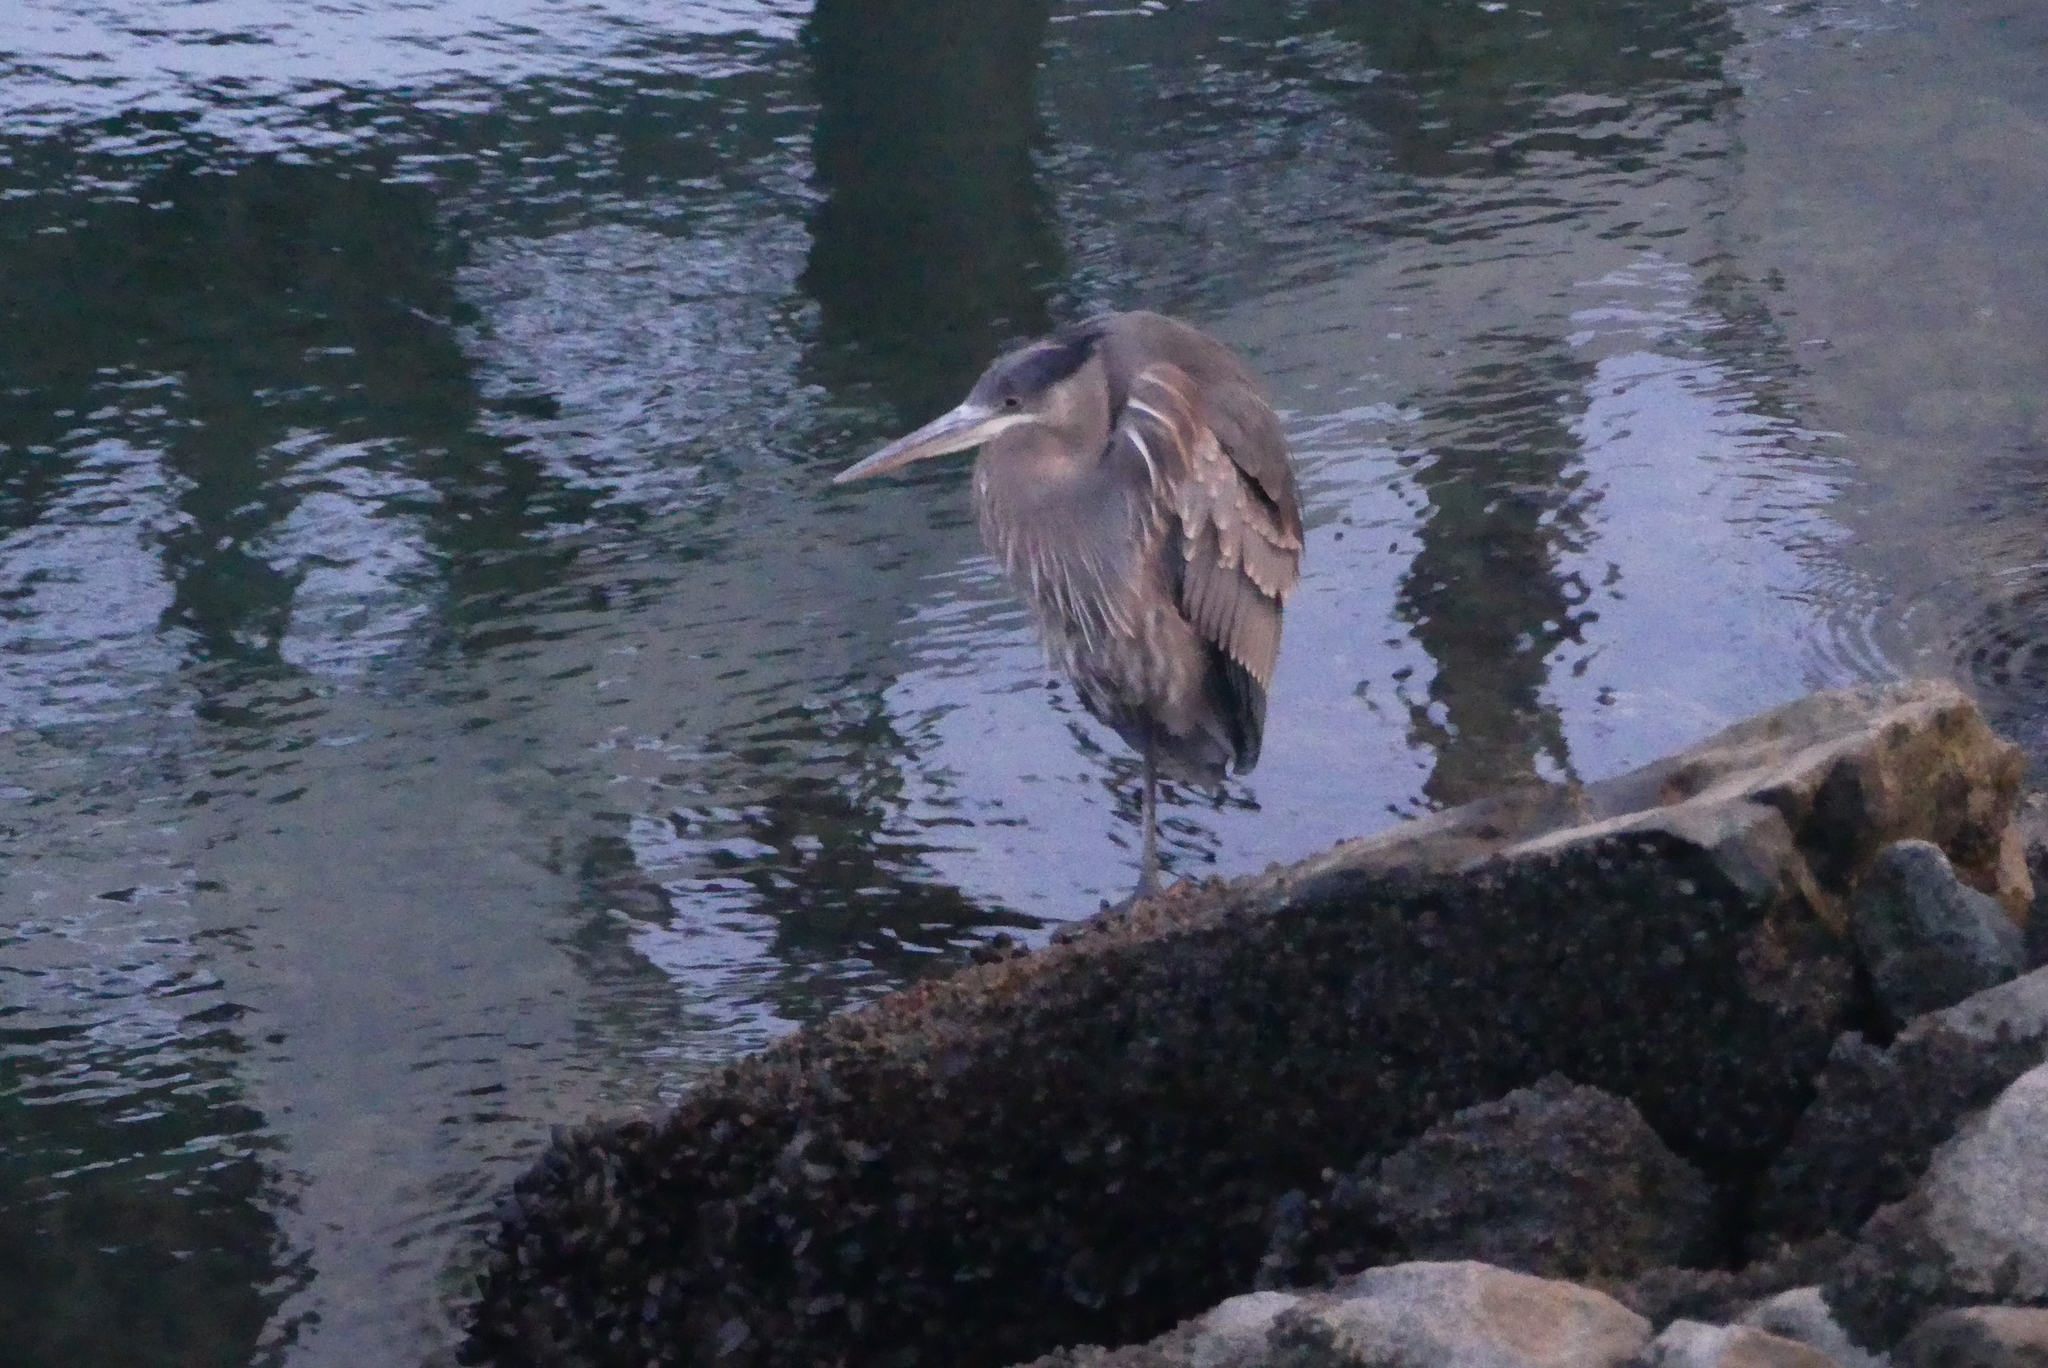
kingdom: Animalia
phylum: Chordata
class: Aves
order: Pelecaniformes
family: Ardeidae
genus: Ardea
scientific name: Ardea herodias
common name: Great blue heron
